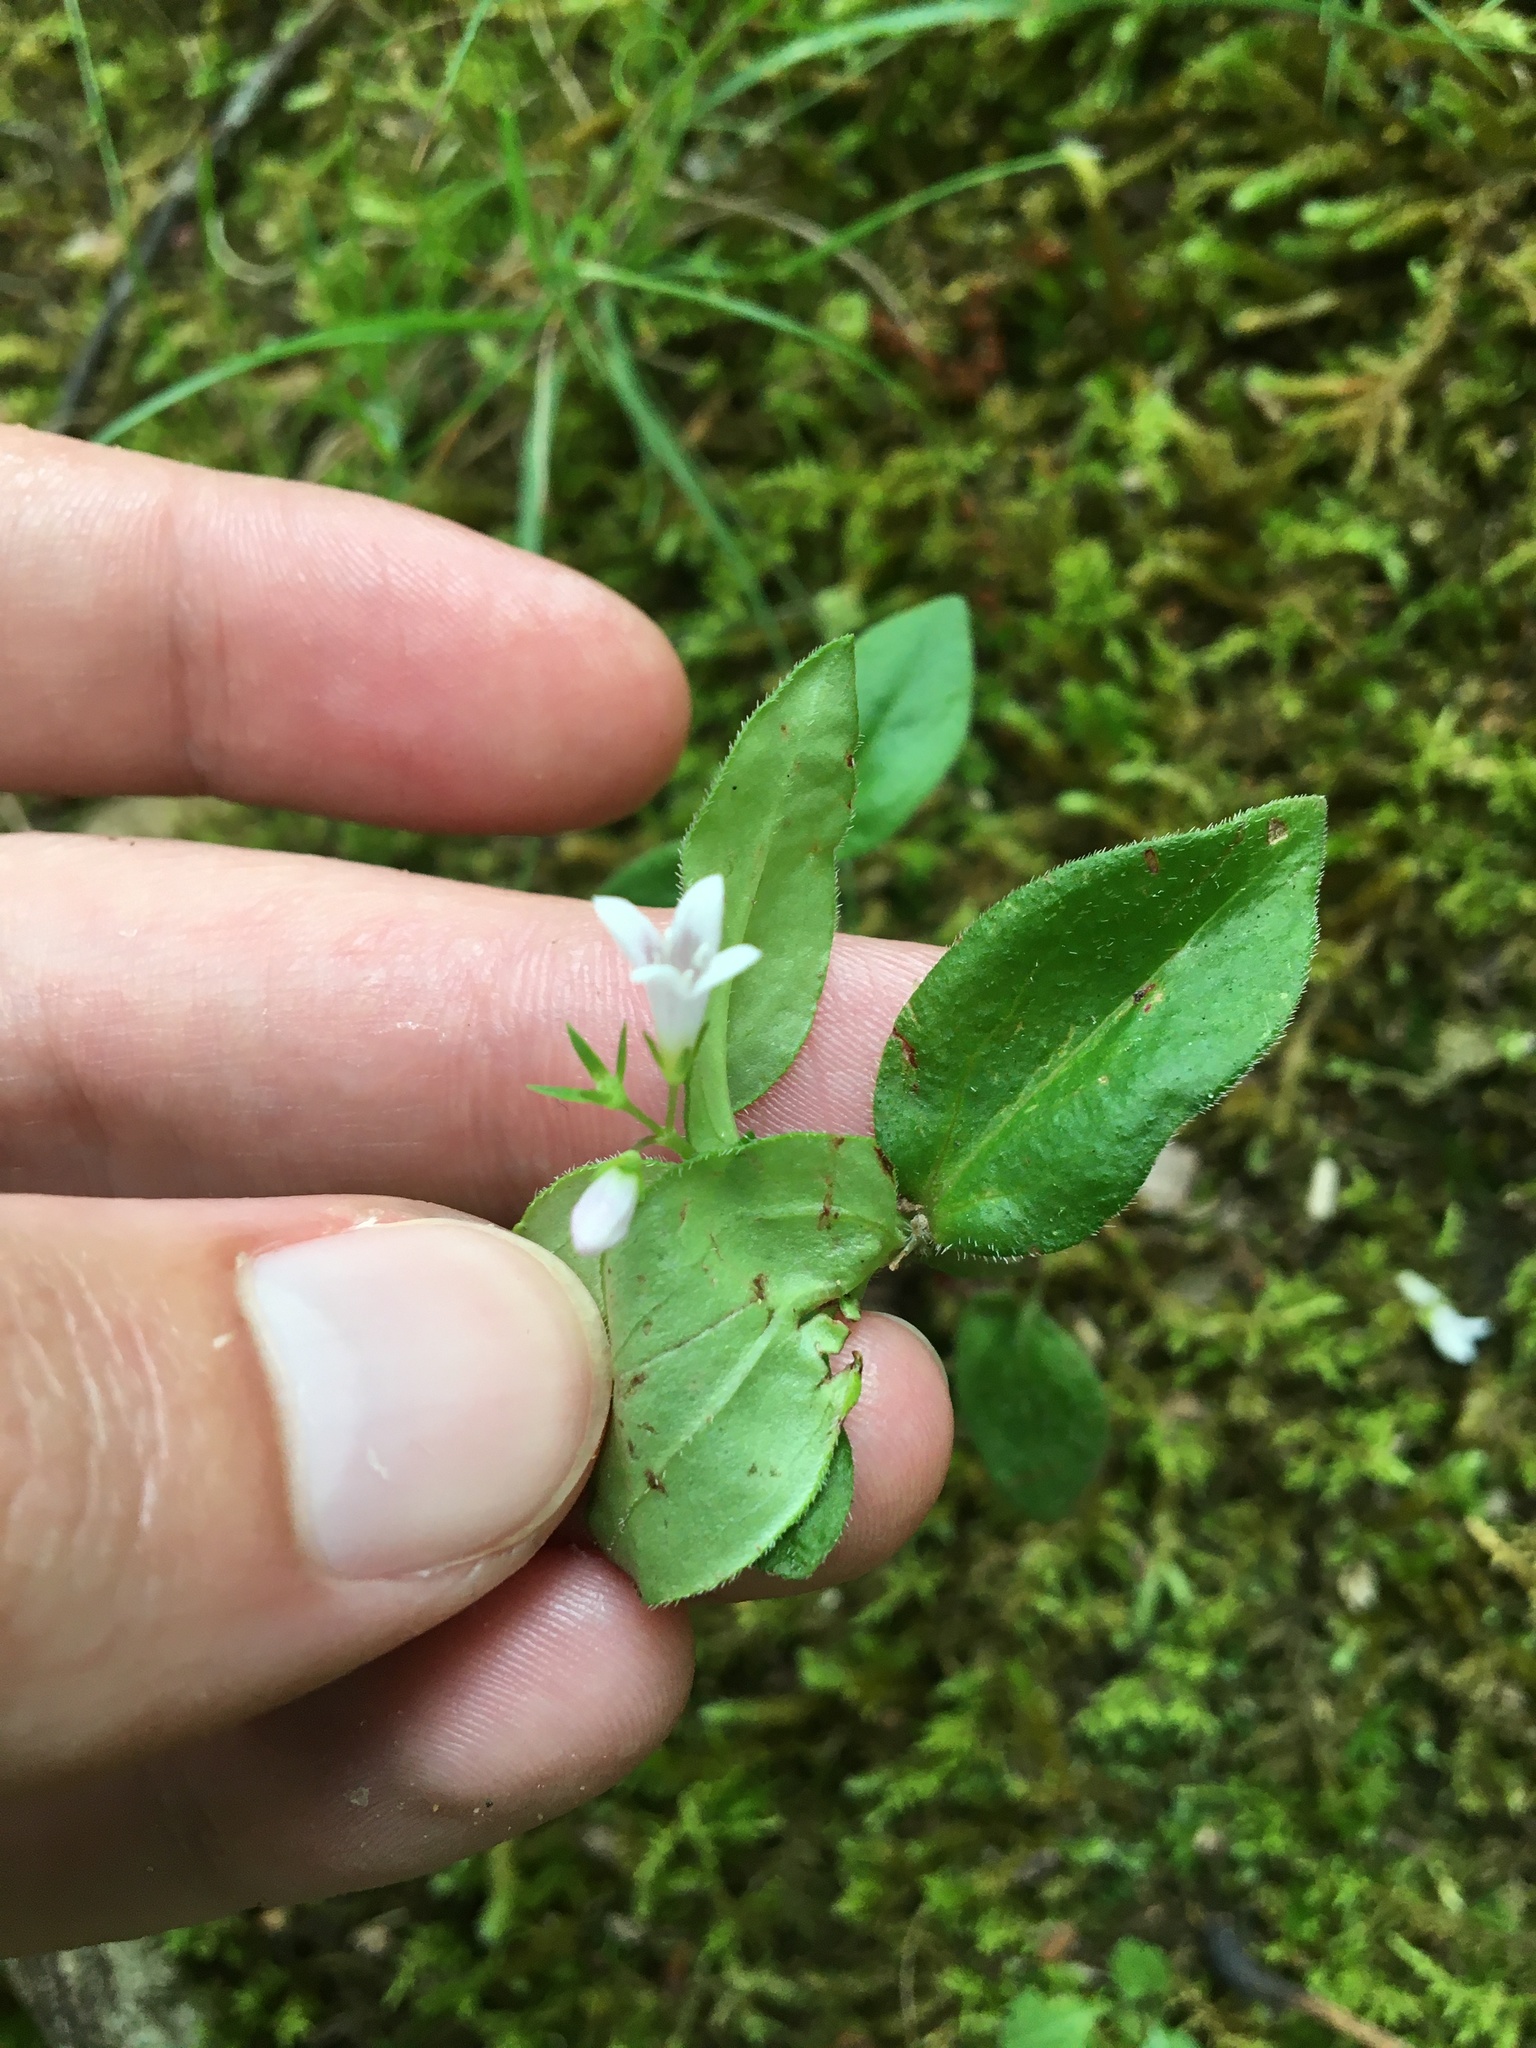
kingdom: Plantae
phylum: Tracheophyta
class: Magnoliopsida
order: Gentianales
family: Rubiaceae
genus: Houstonia
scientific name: Houstonia purpurea
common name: Summer bluet
